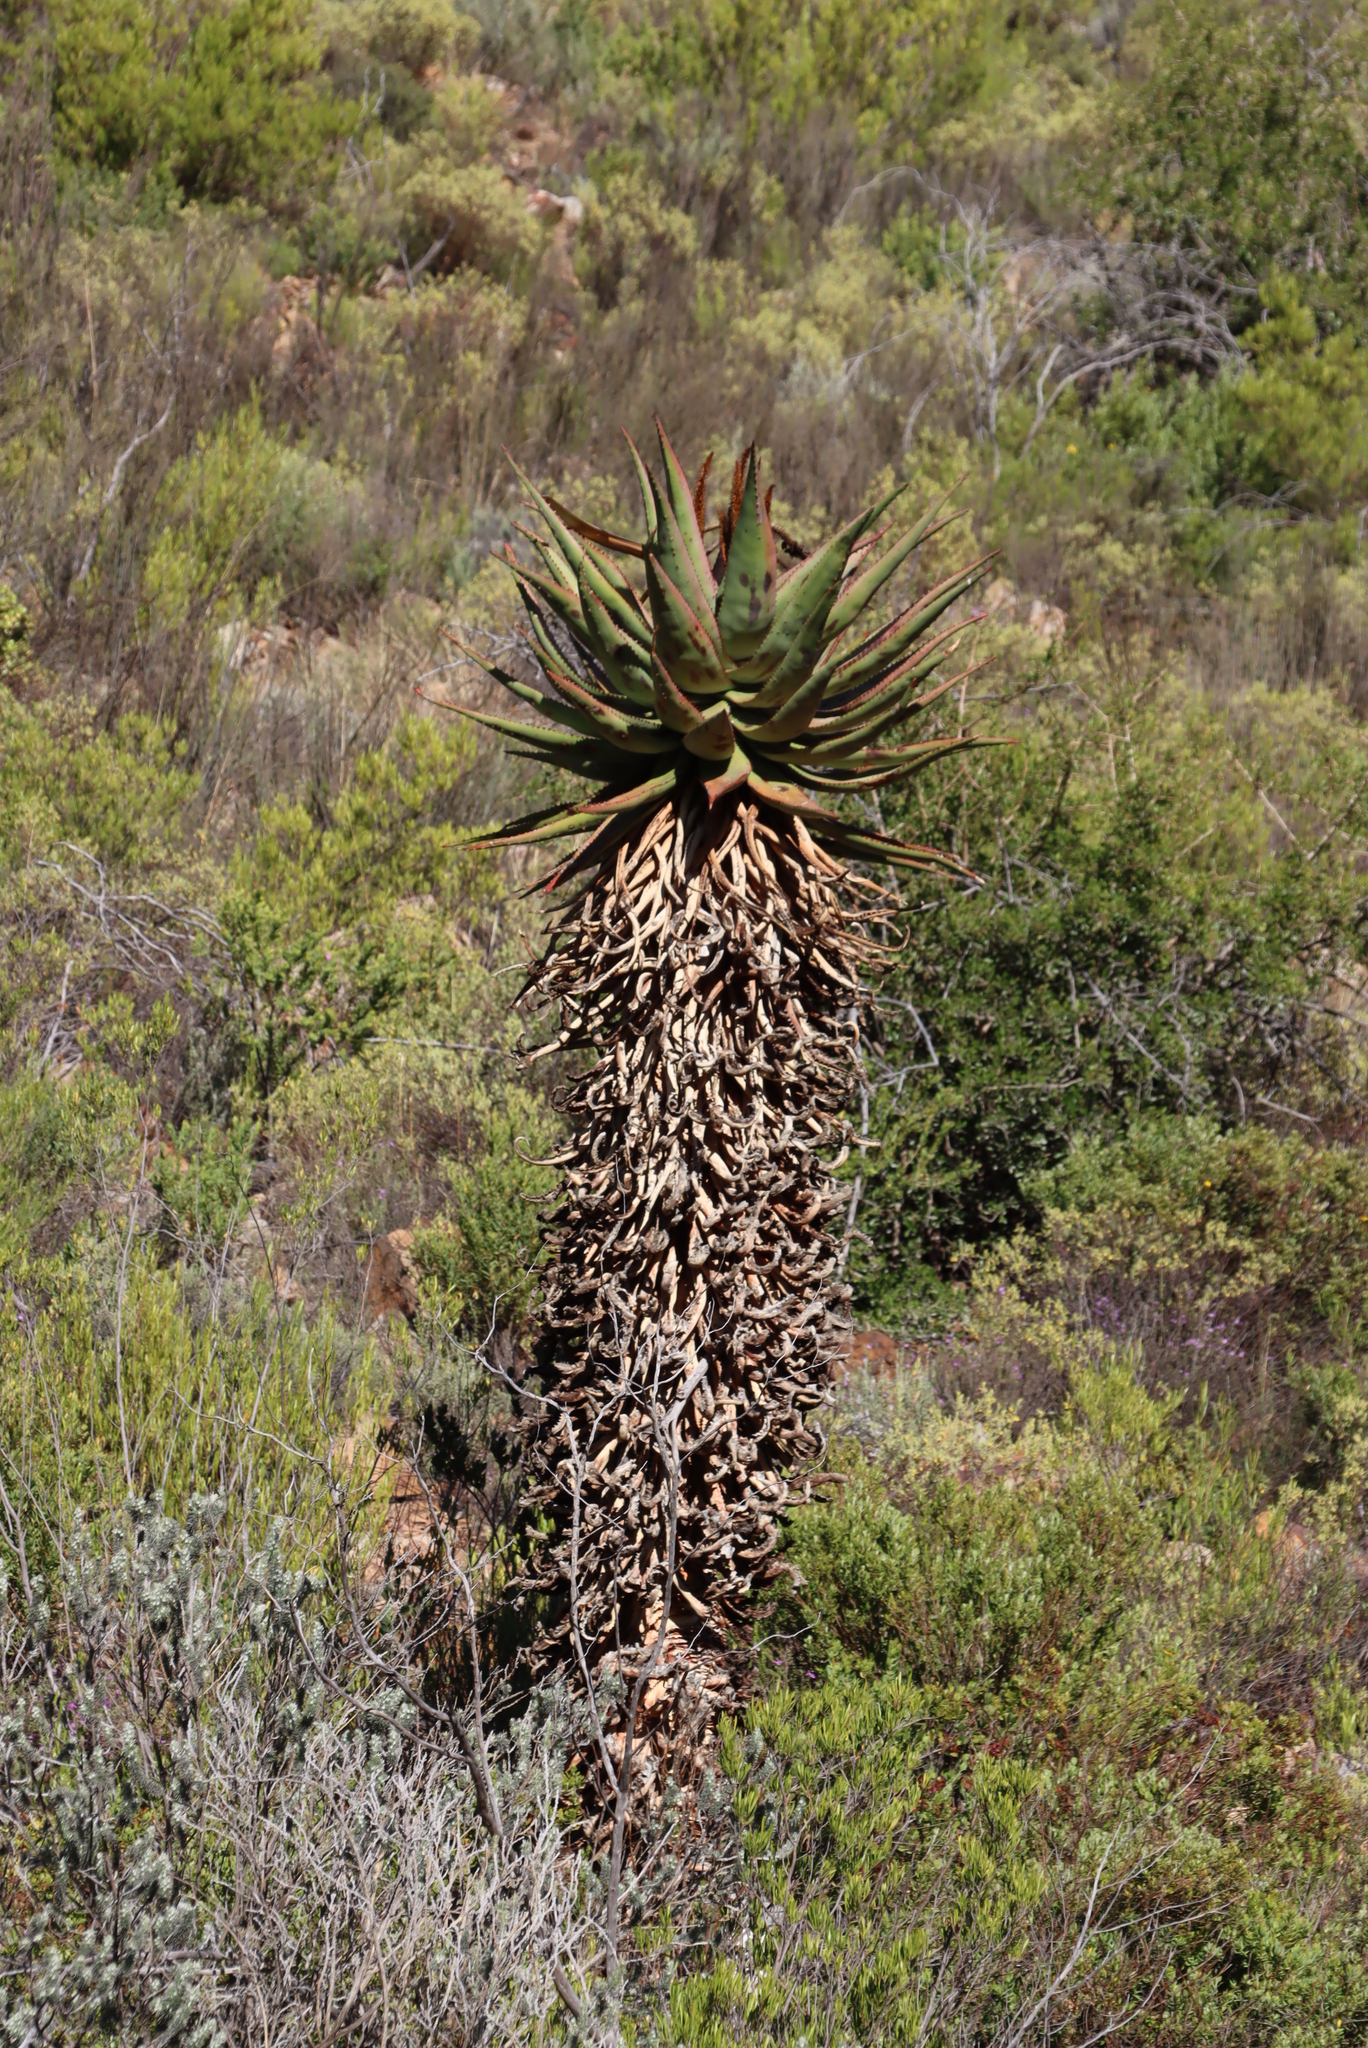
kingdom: Plantae
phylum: Tracheophyta
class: Liliopsida
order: Asparagales
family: Asphodelaceae
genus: Aloe
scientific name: Aloe ferox
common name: Bitter aloe
